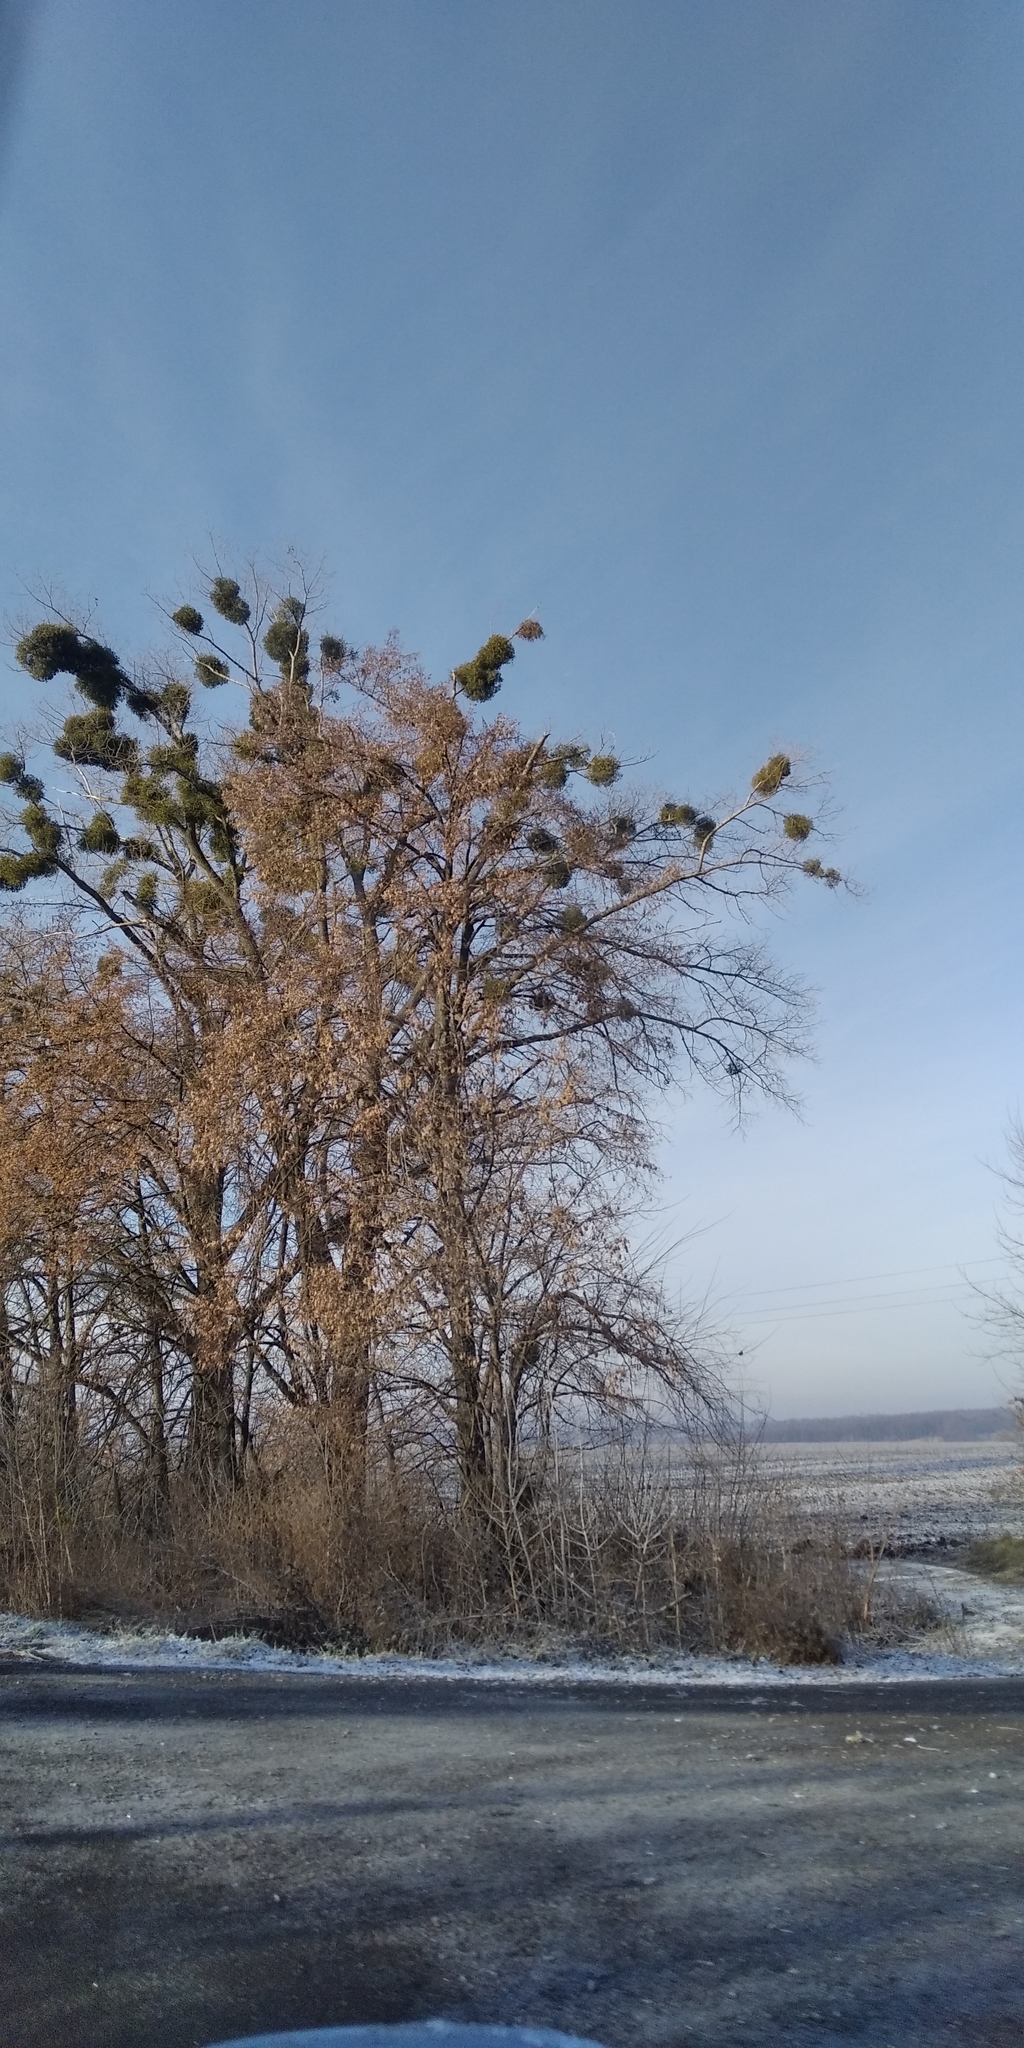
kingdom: Plantae
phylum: Tracheophyta
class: Magnoliopsida
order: Santalales
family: Viscaceae
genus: Viscum
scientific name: Viscum album
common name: Mistletoe
